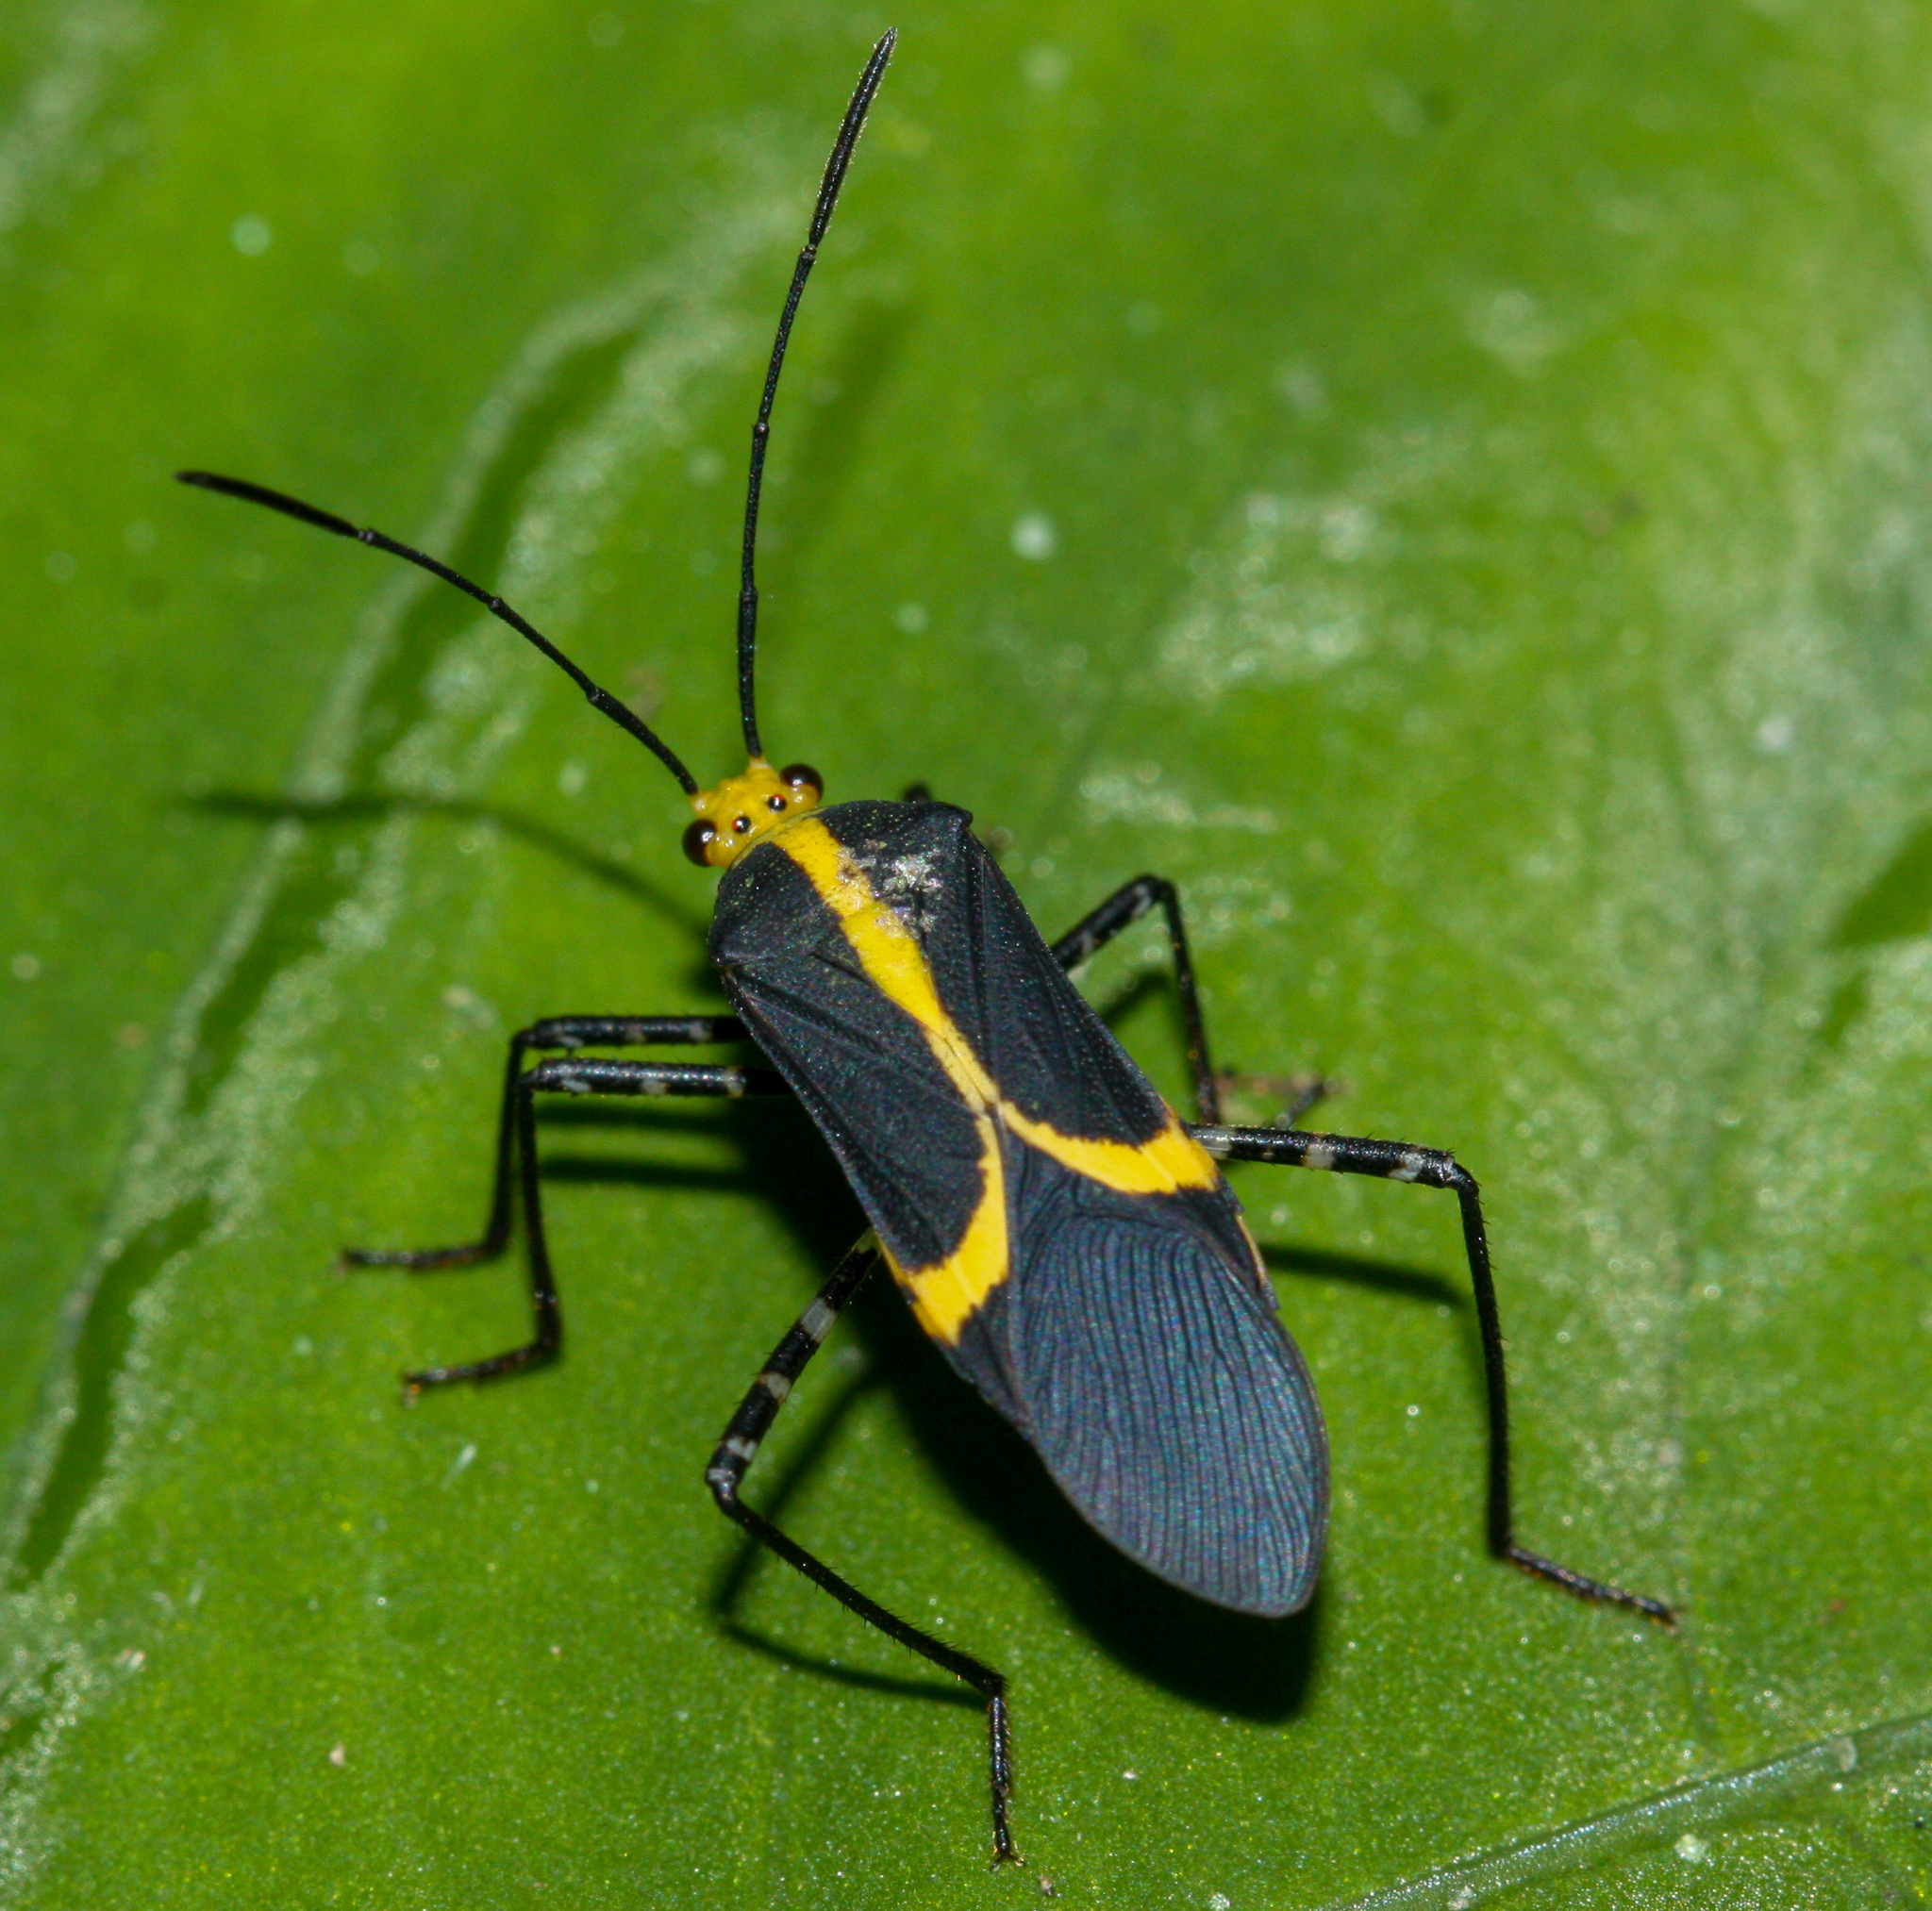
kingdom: Animalia
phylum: Arthropoda
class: Insecta
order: Hemiptera
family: Coreidae
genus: Hypselonotus
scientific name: Hypselonotus linea
